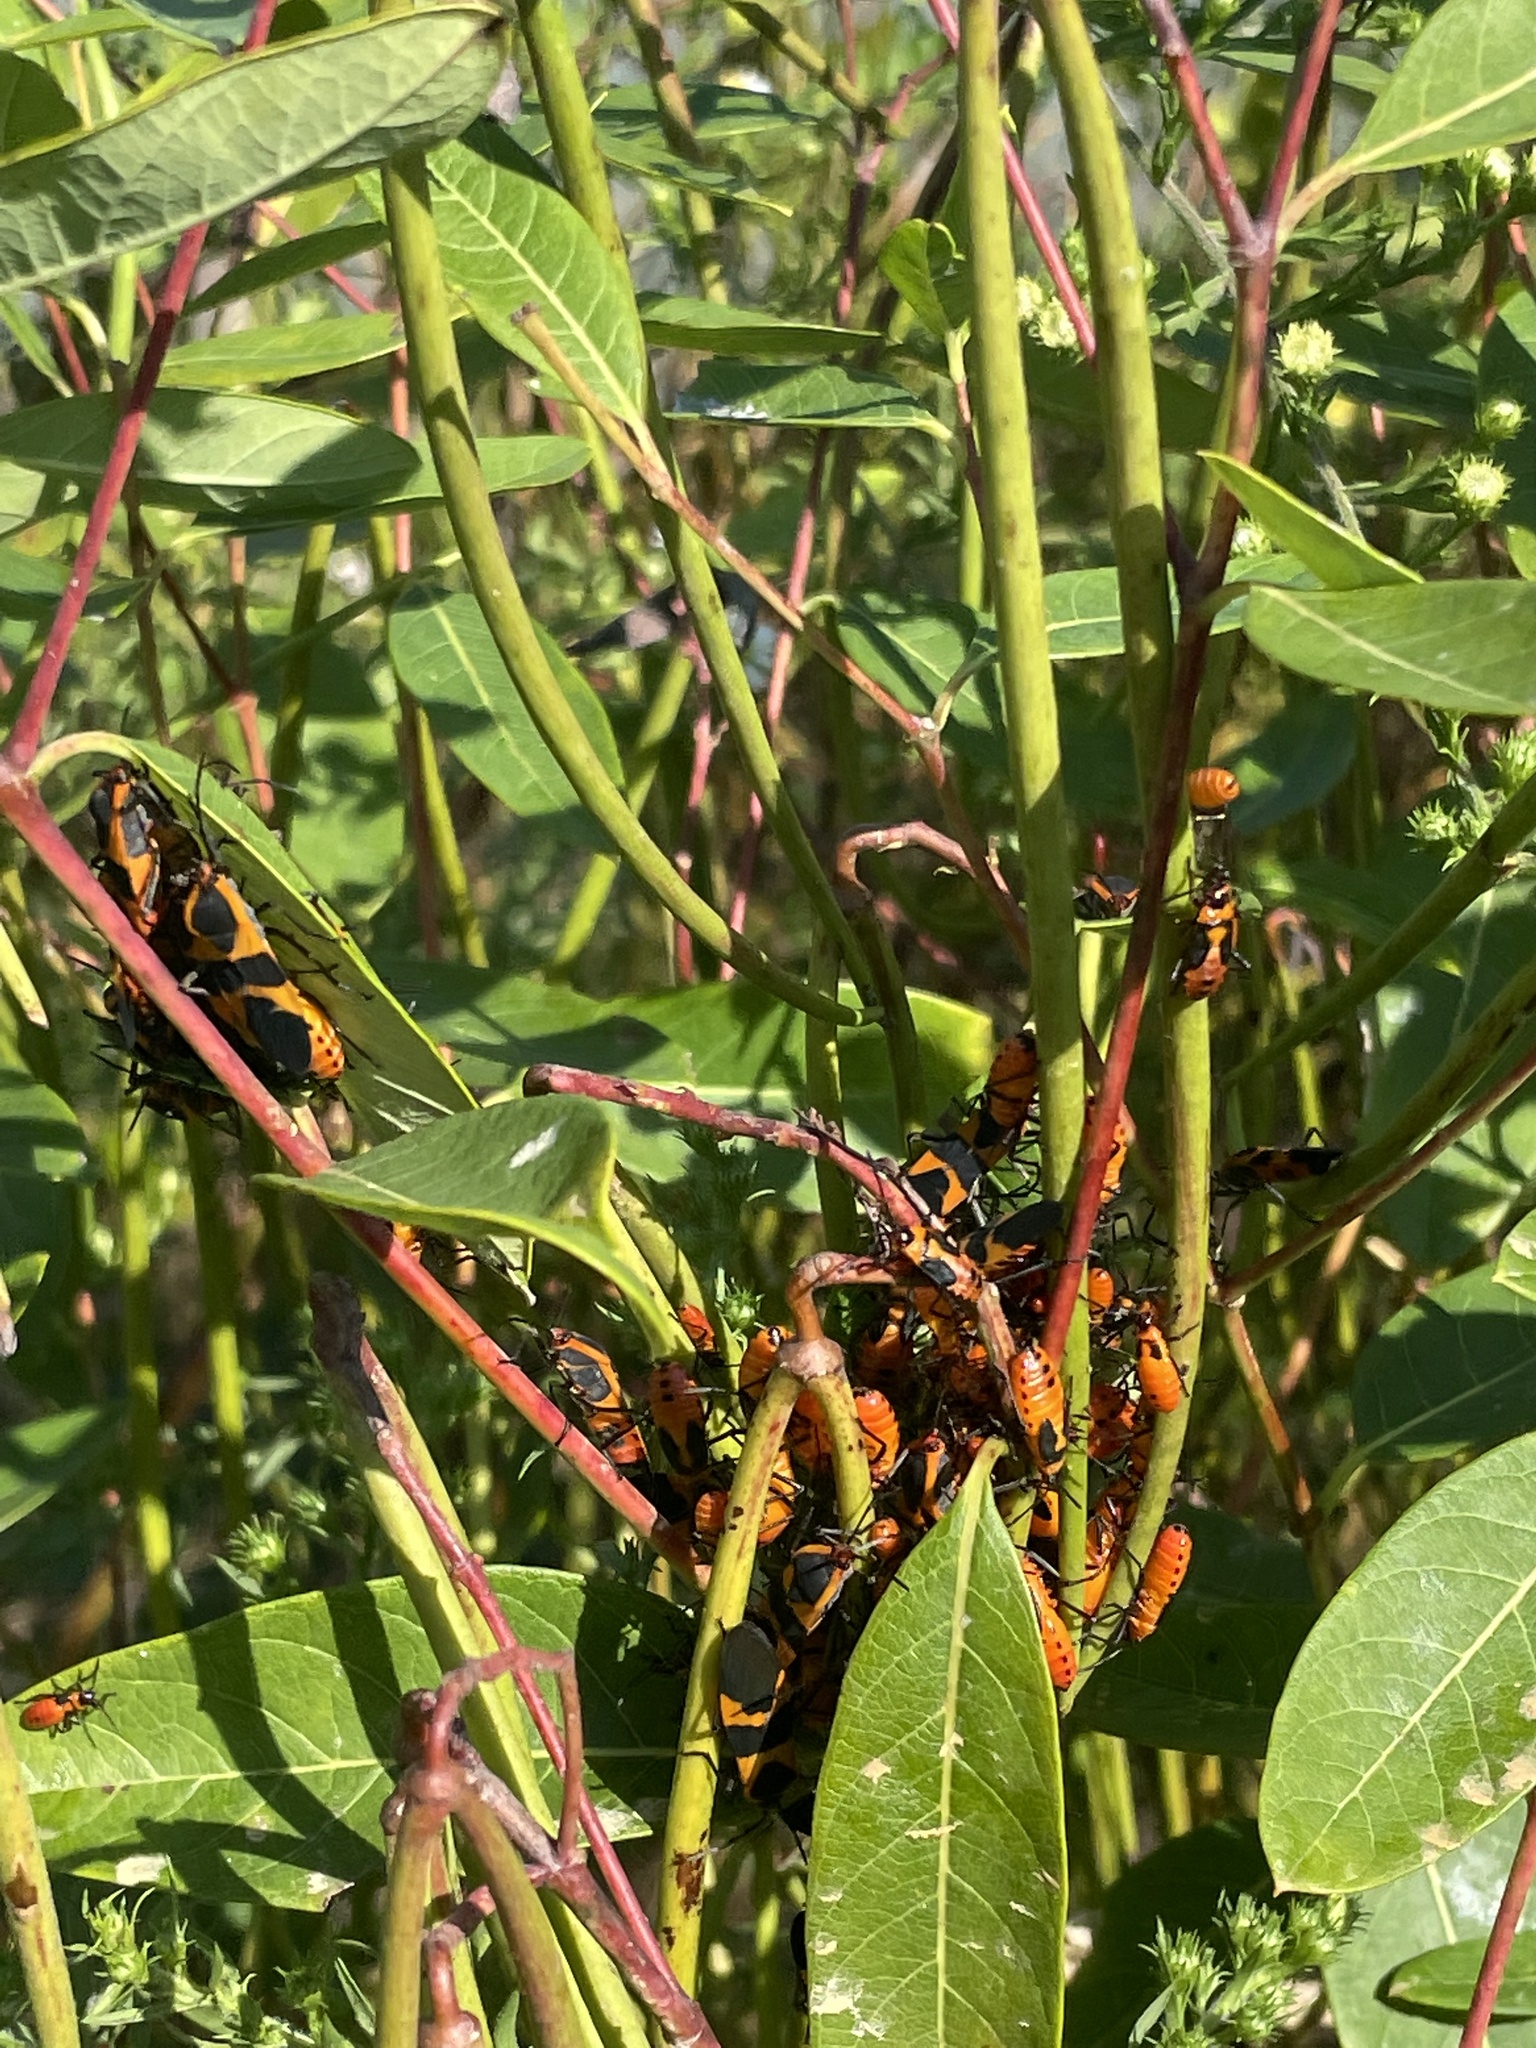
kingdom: Animalia
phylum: Arthropoda
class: Insecta
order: Hemiptera
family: Lygaeidae
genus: Oncopeltus
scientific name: Oncopeltus fasciatus
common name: Large milkweed bug
